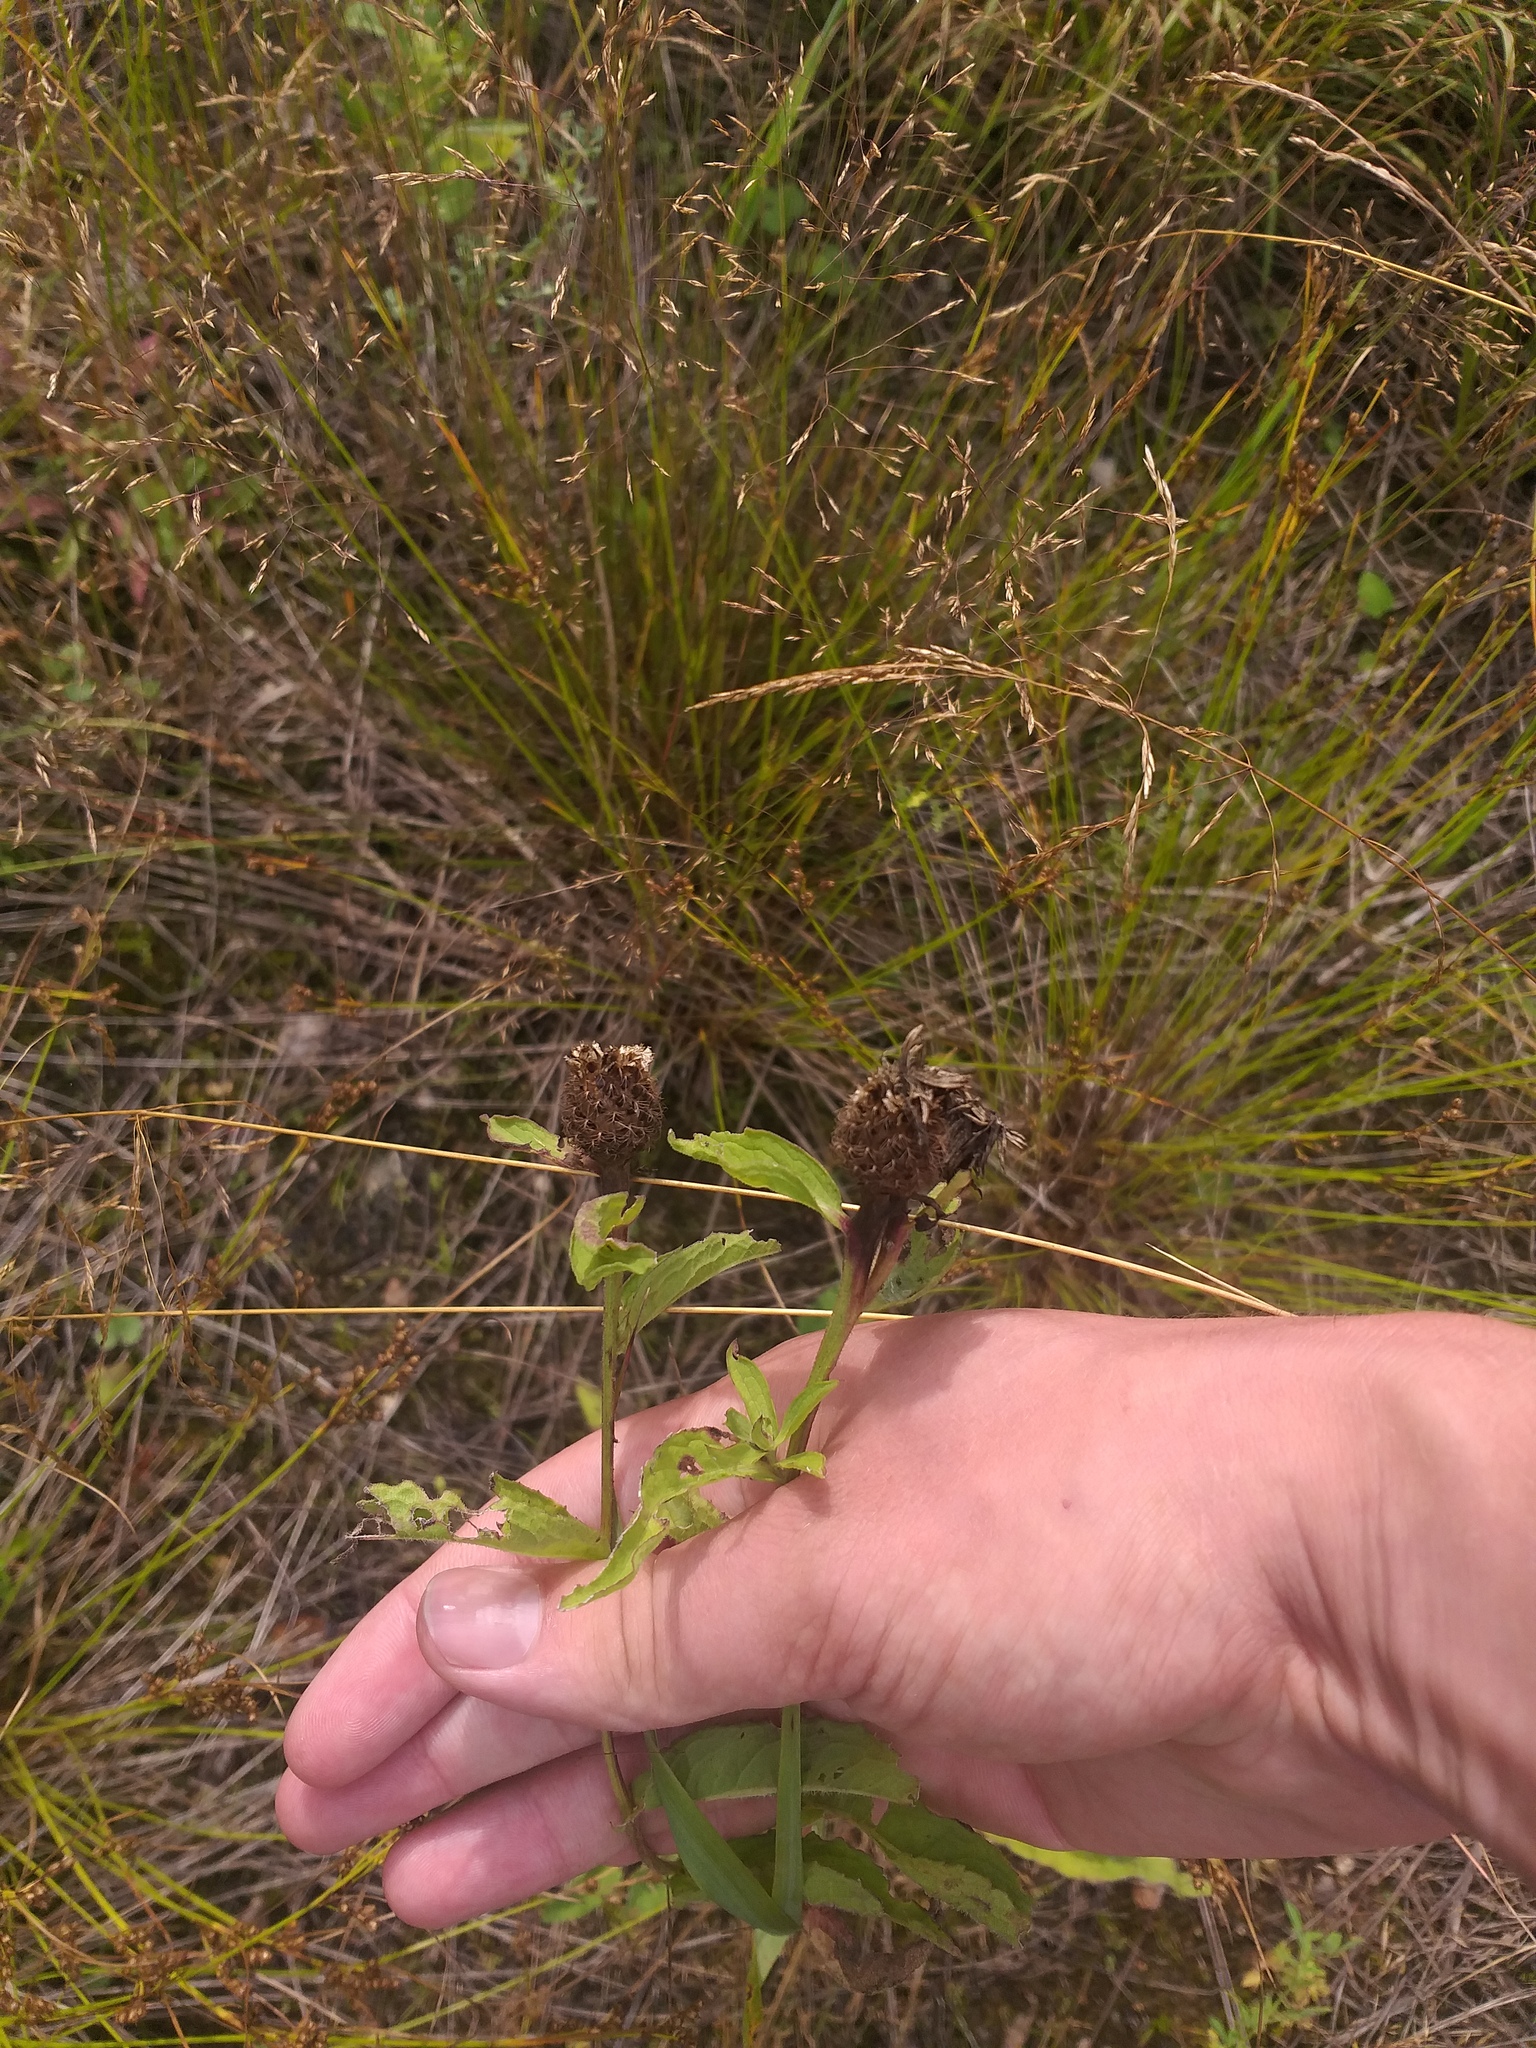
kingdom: Plantae
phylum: Tracheophyta
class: Magnoliopsida
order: Asterales
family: Asteraceae
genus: Centaurea
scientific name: Centaurea pseudophrygia
